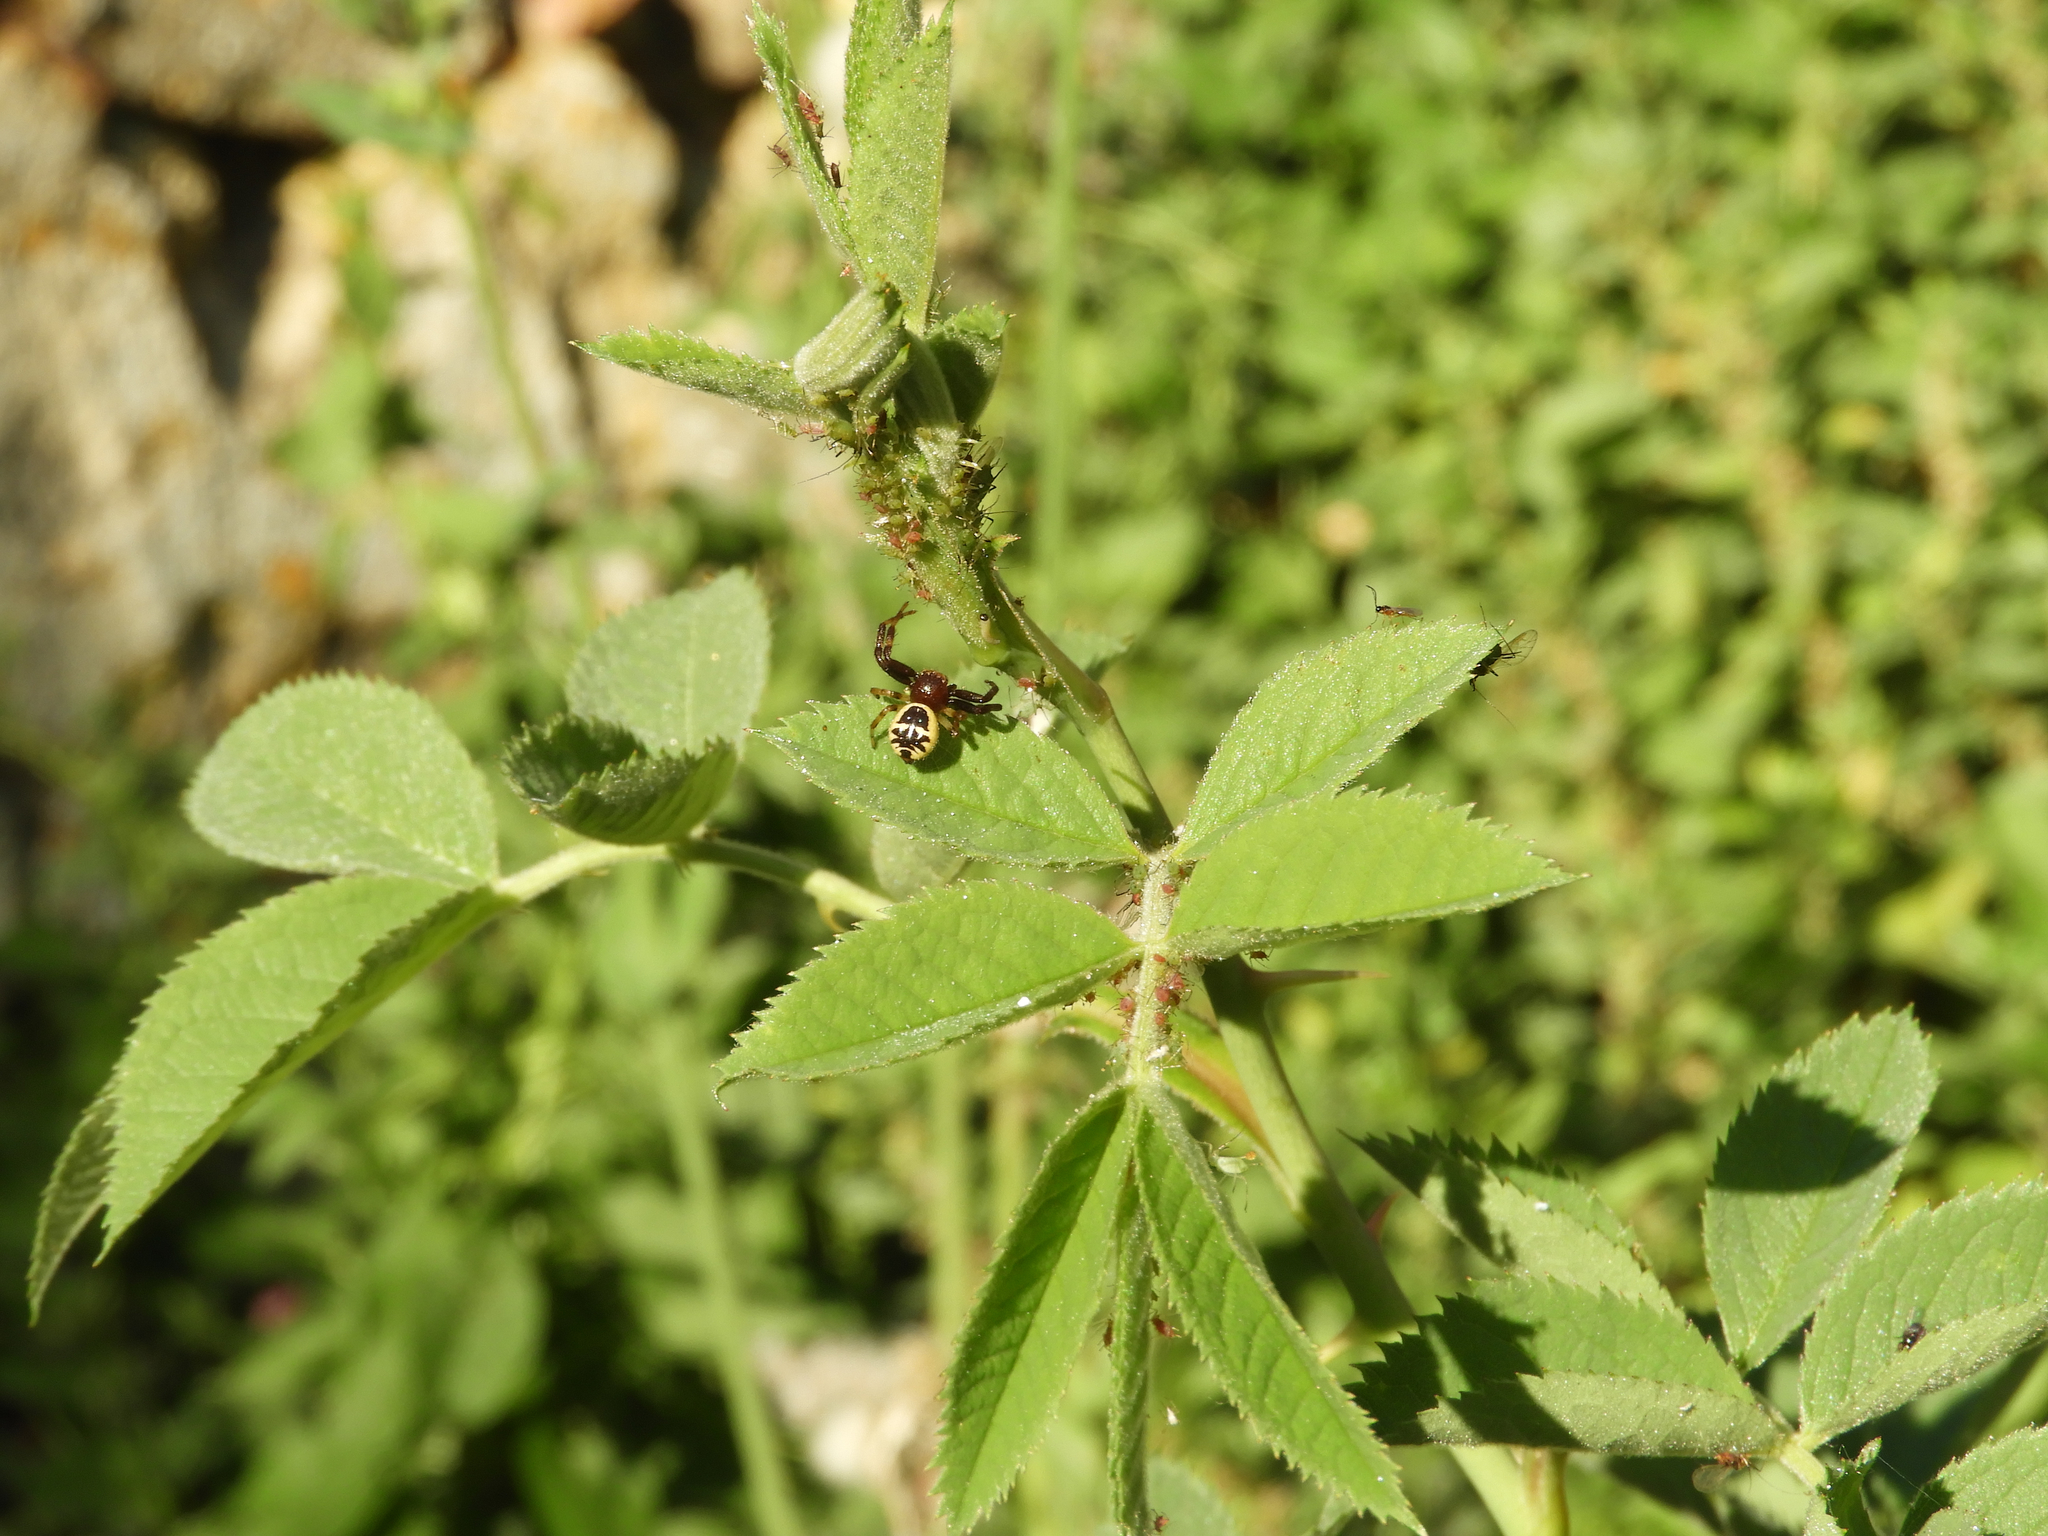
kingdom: Animalia
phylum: Arthropoda
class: Arachnida
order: Araneae
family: Thomisidae
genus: Synema
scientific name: Synema globosum
